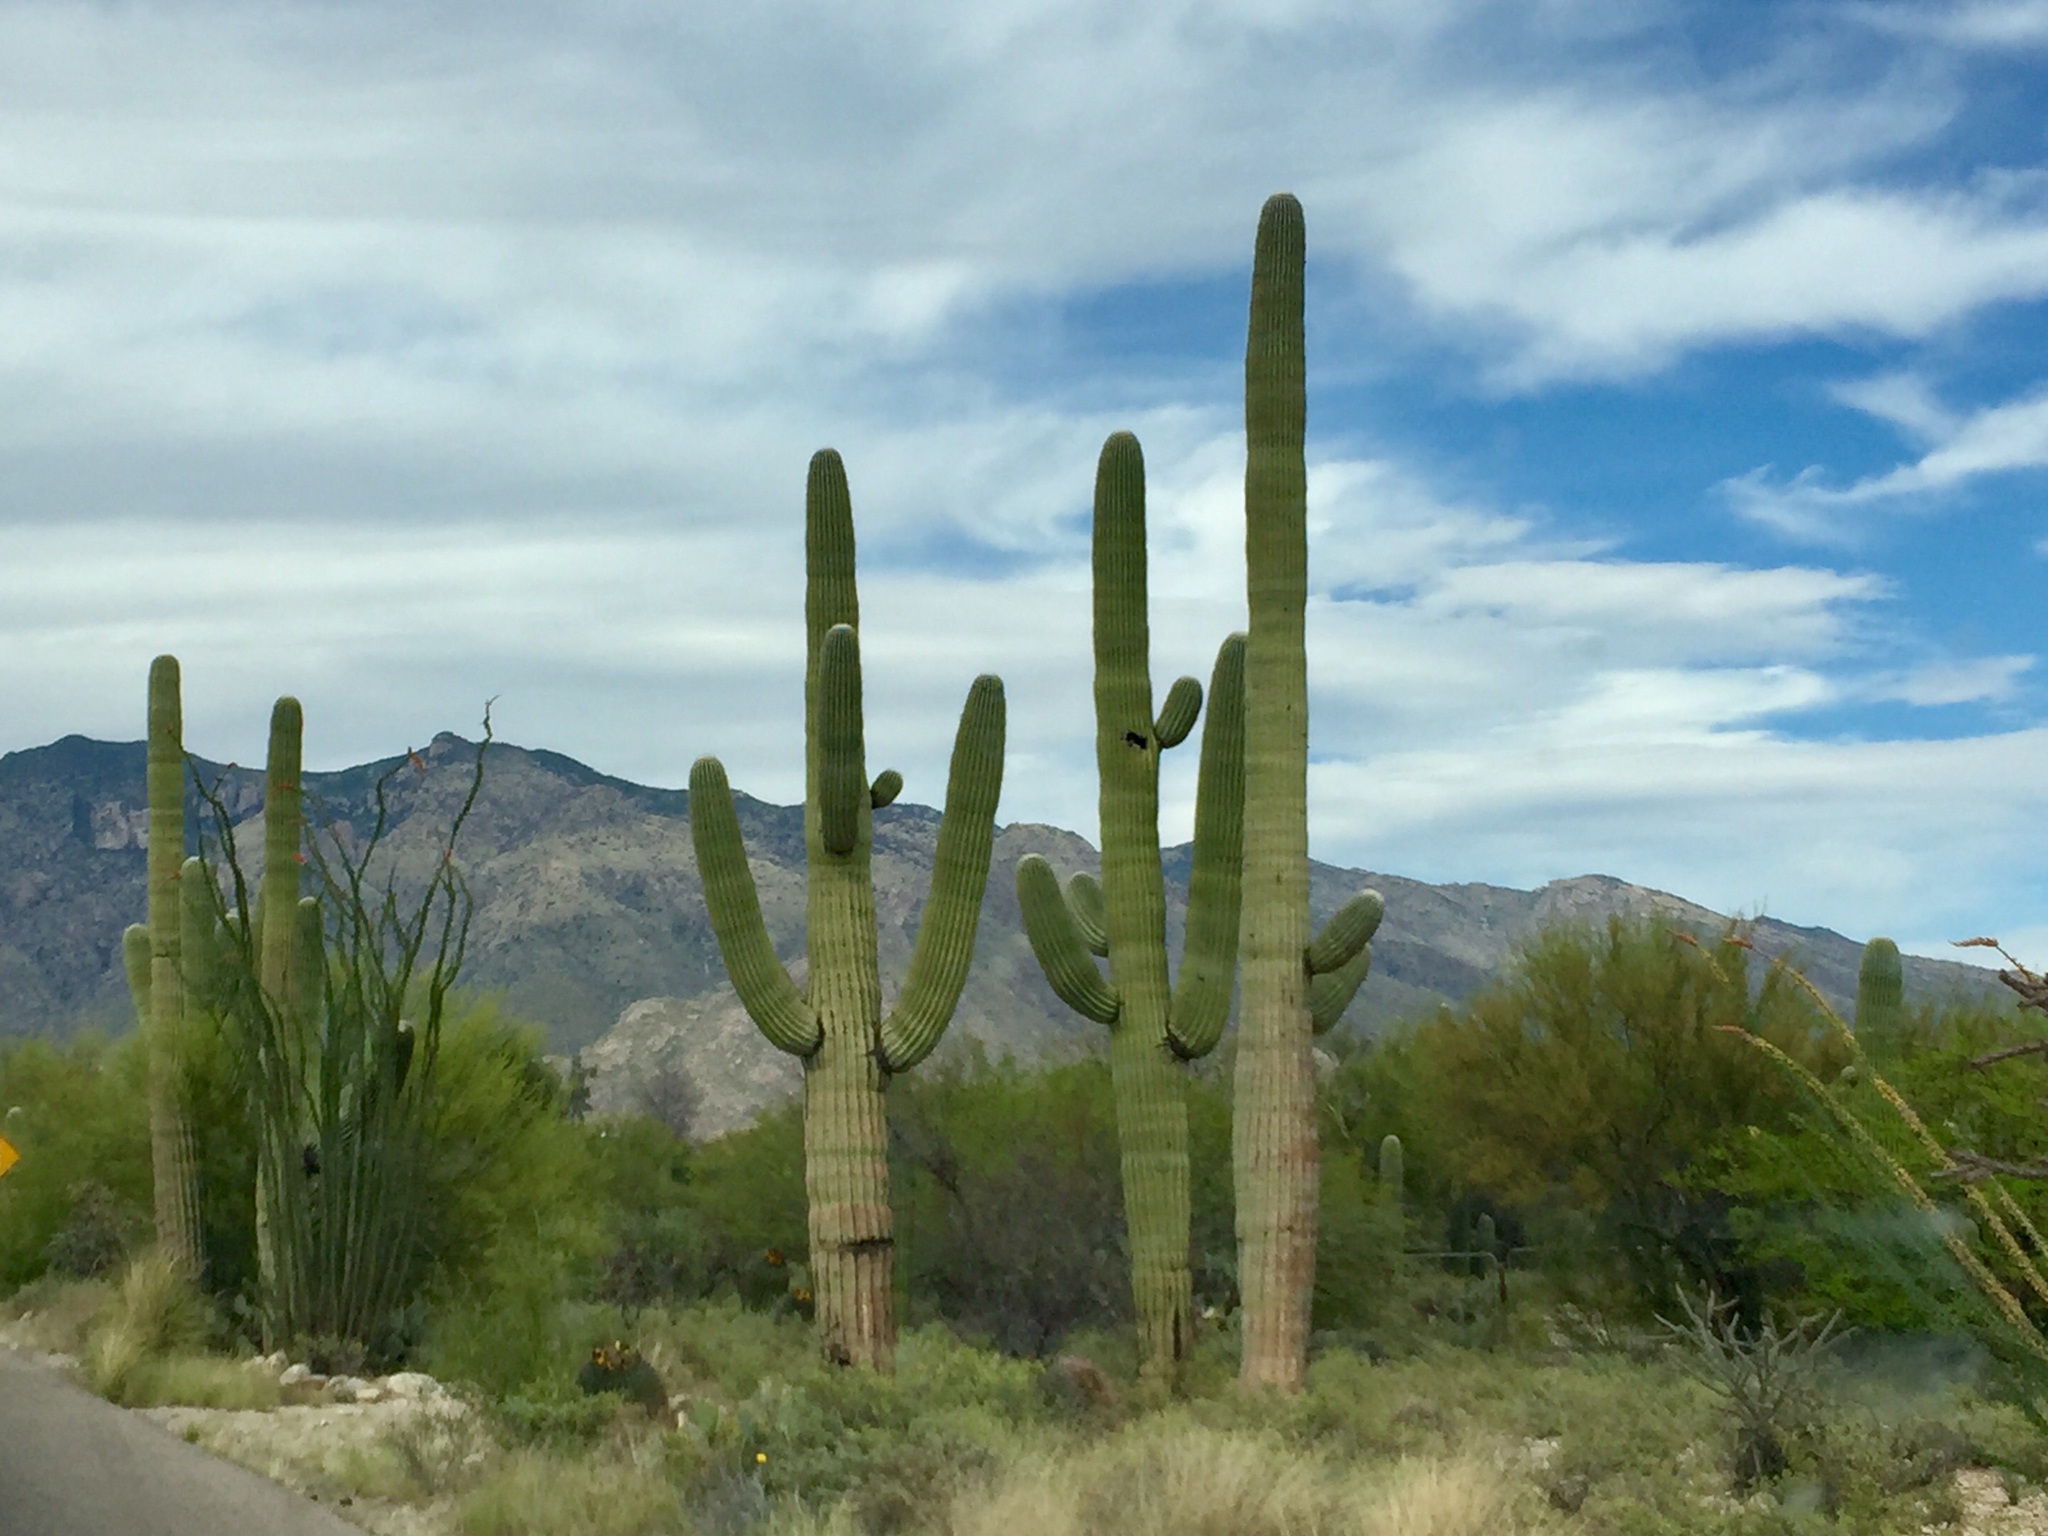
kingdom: Plantae
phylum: Tracheophyta
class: Magnoliopsida
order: Caryophyllales
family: Cactaceae
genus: Carnegiea
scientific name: Carnegiea gigantea
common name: Saguaro
